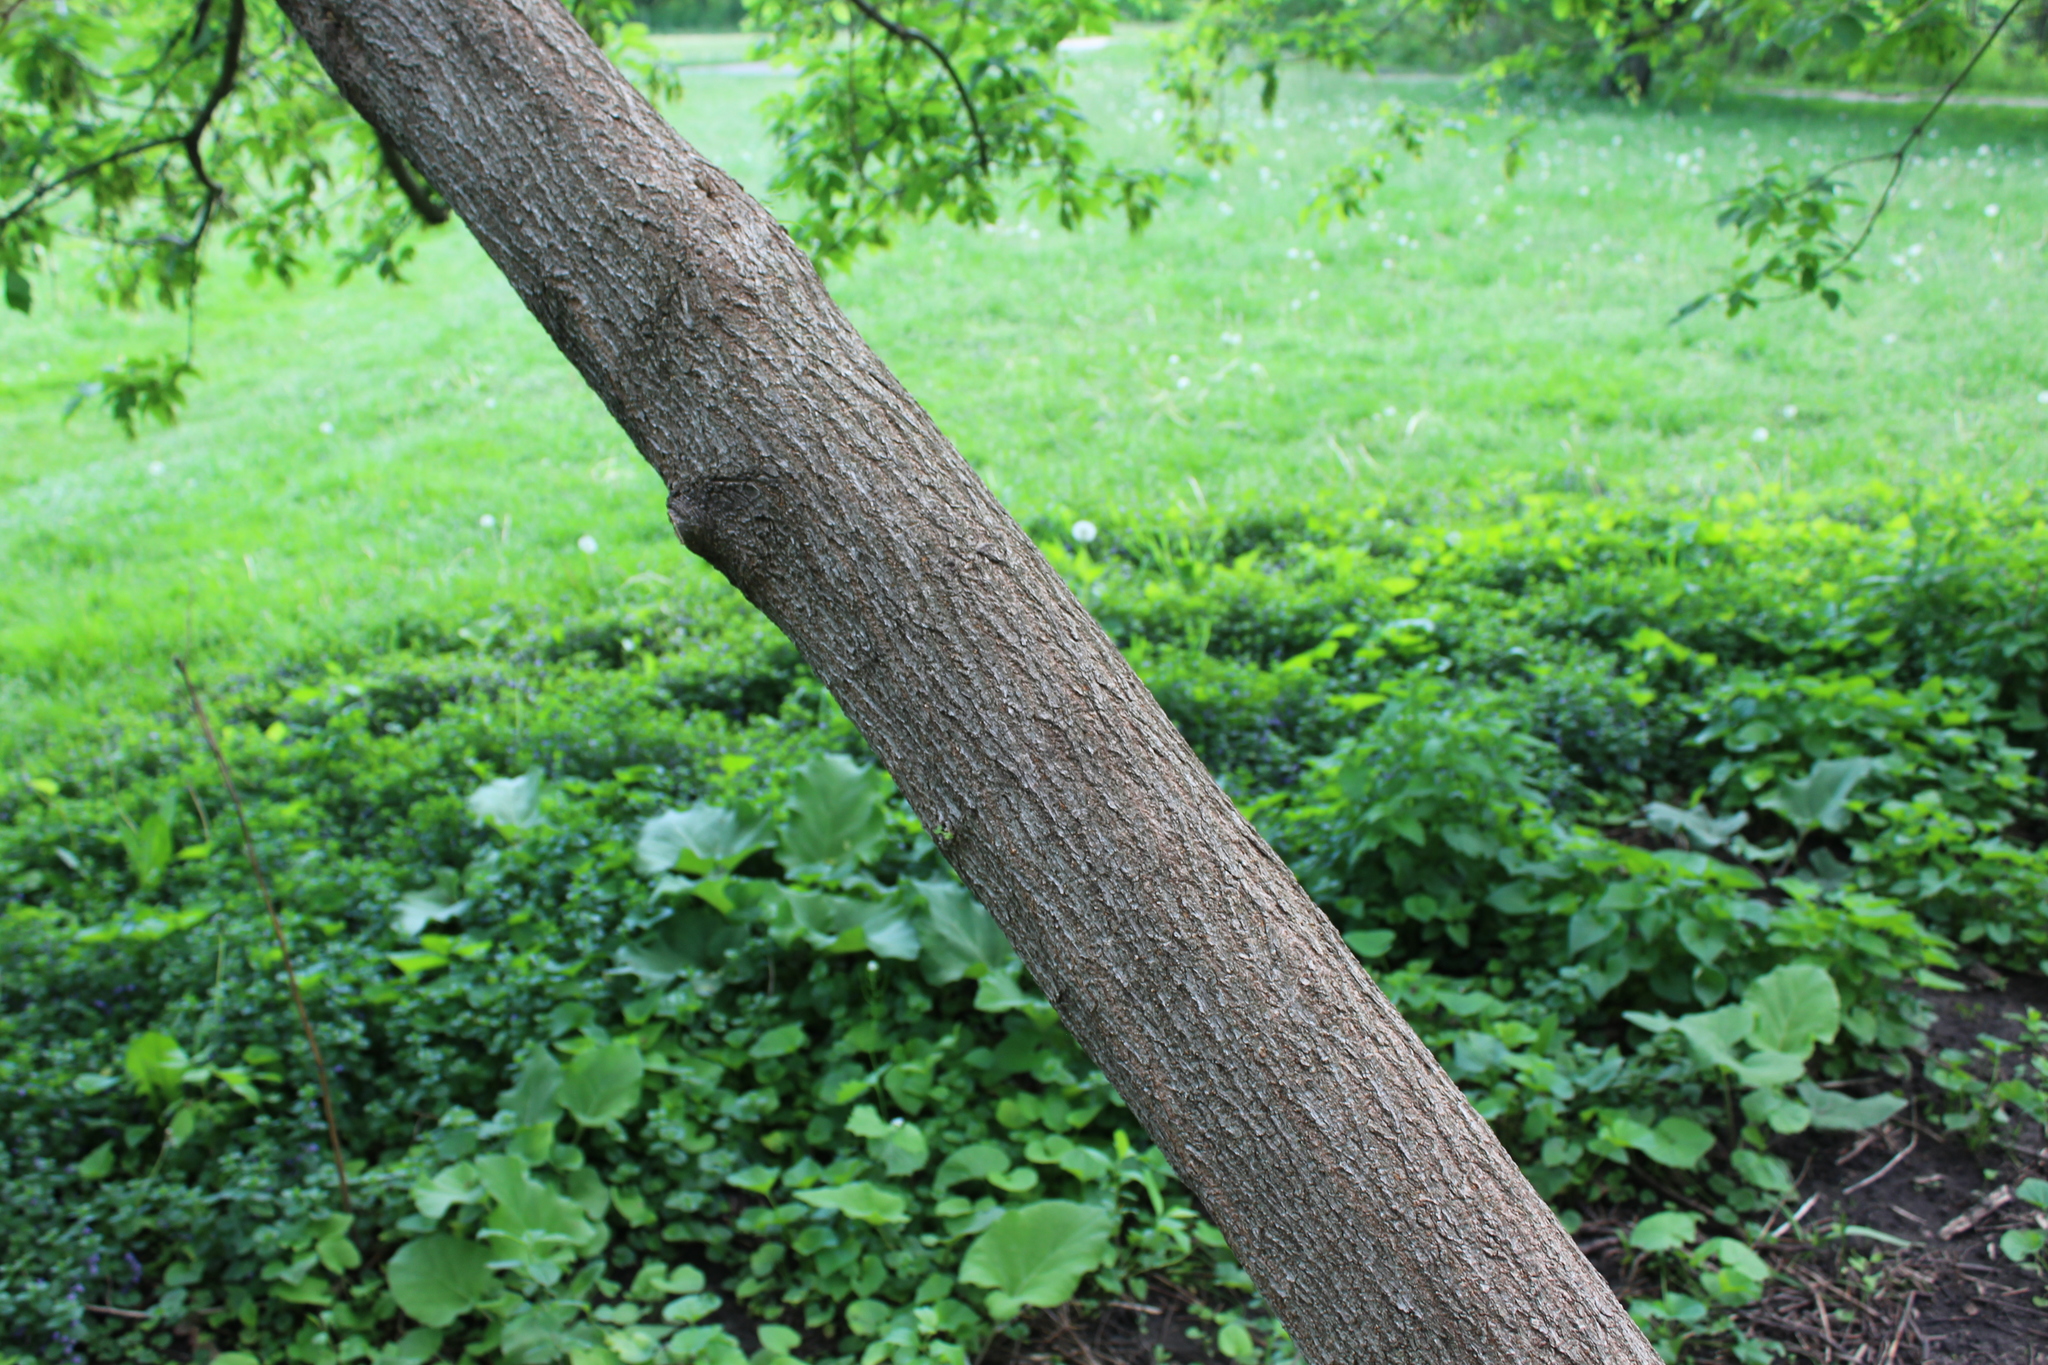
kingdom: Plantae
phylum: Tracheophyta
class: Magnoliopsida
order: Sapindales
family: Sapindaceae
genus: Acer
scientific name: Acer negundo
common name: Ashleaf maple
